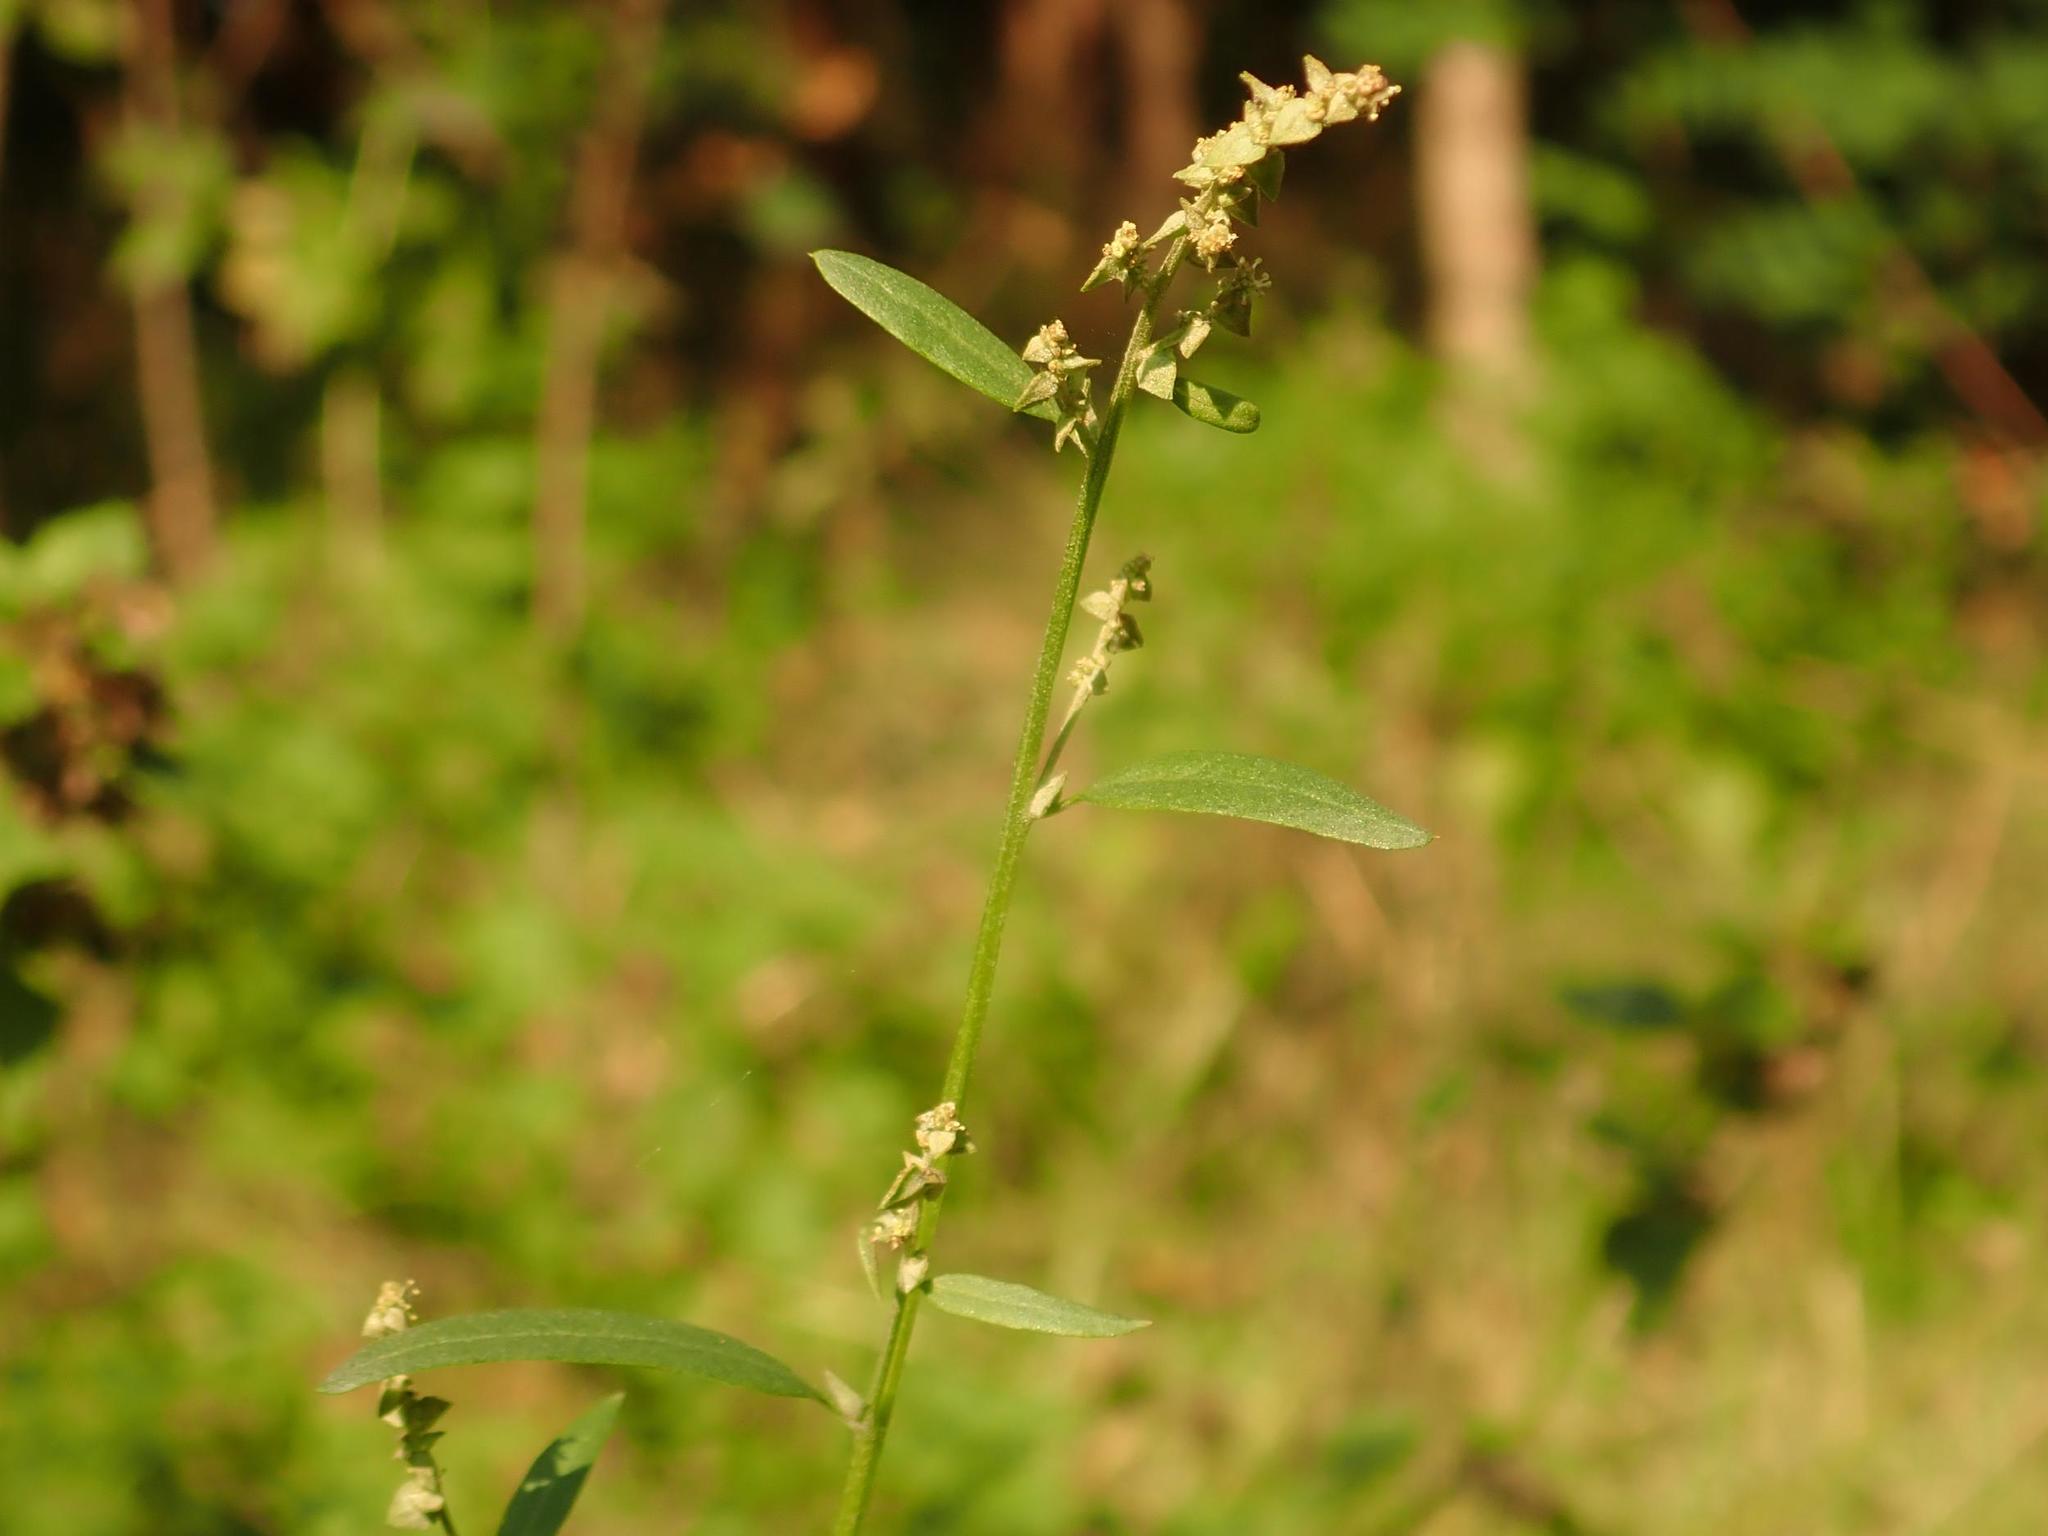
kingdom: Plantae
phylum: Tracheophyta
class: Magnoliopsida
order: Caryophyllales
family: Amaranthaceae
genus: Atriplex
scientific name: Atriplex patula
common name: Common orache
